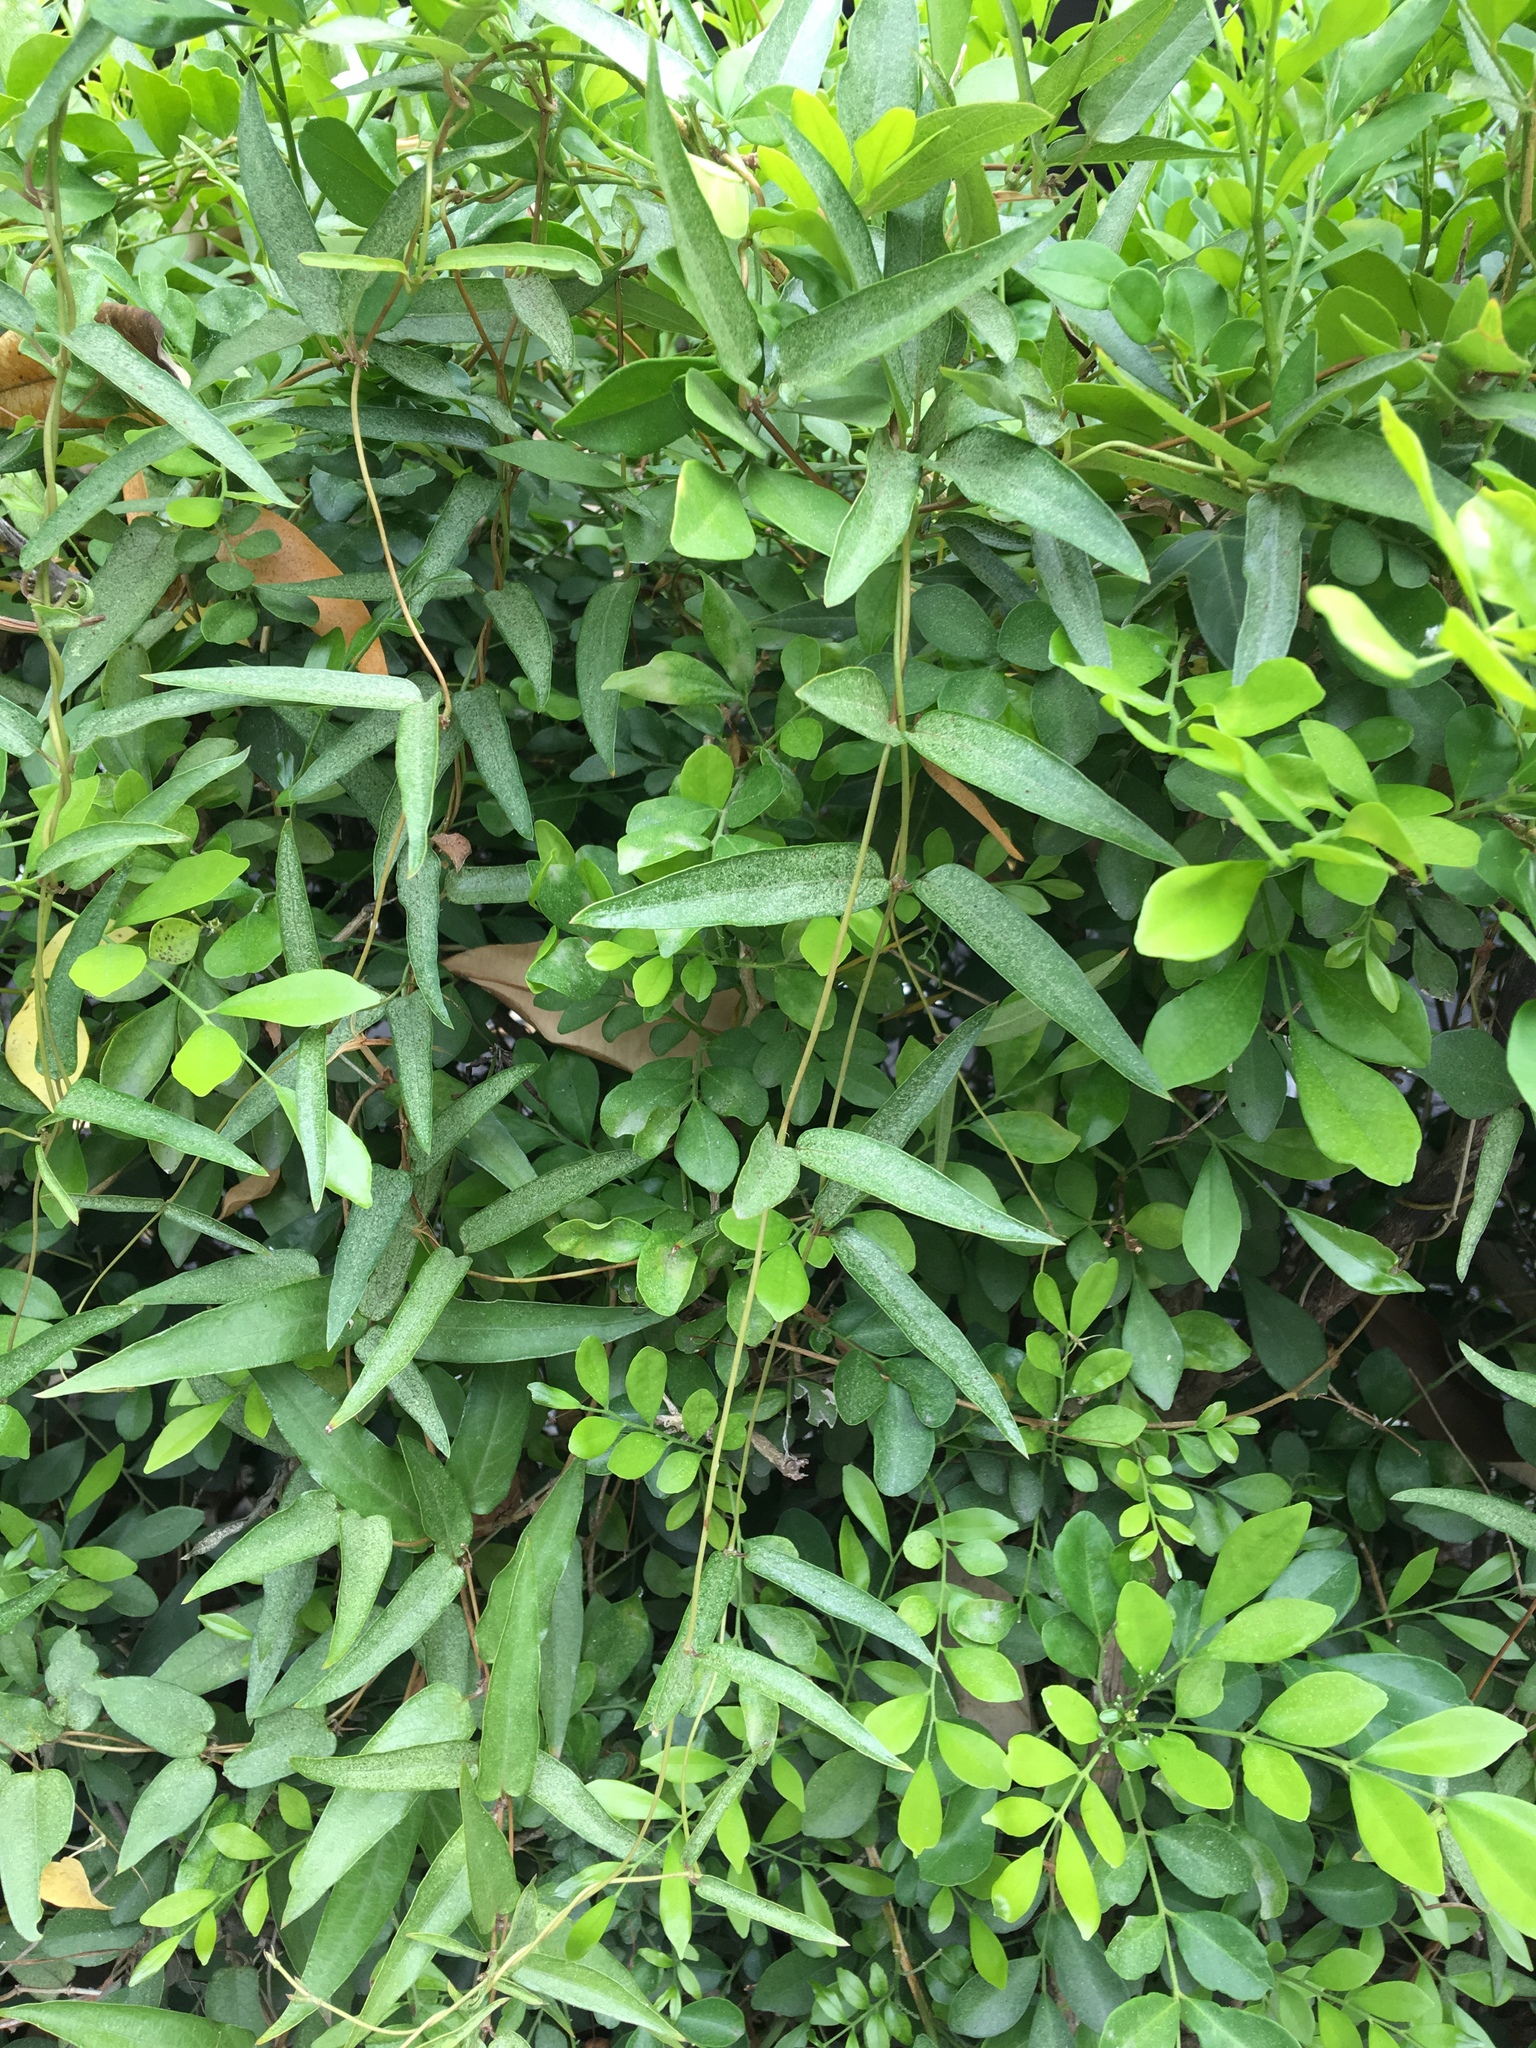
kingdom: Plantae
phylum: Tracheophyta
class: Magnoliopsida
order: Gentianales
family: Rubiaceae
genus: Paederia
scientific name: Paederia foetida
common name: Stinkvine
